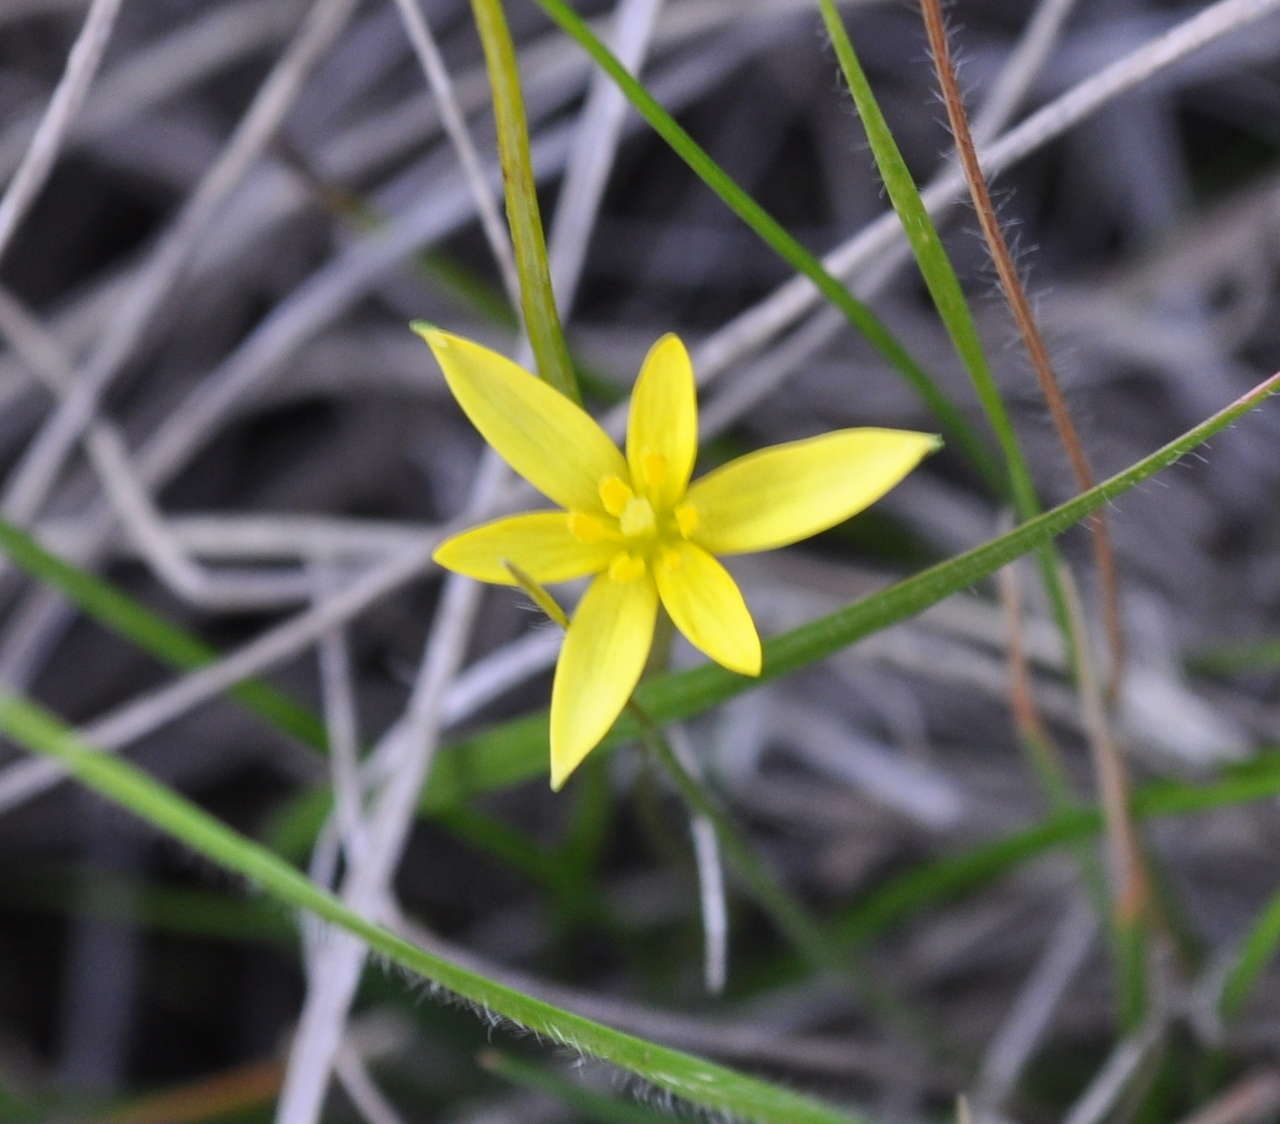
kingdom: Plantae
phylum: Tracheophyta
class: Liliopsida
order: Asparagales
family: Hypoxidaceae
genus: Pauridia
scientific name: Pauridia vaginata
